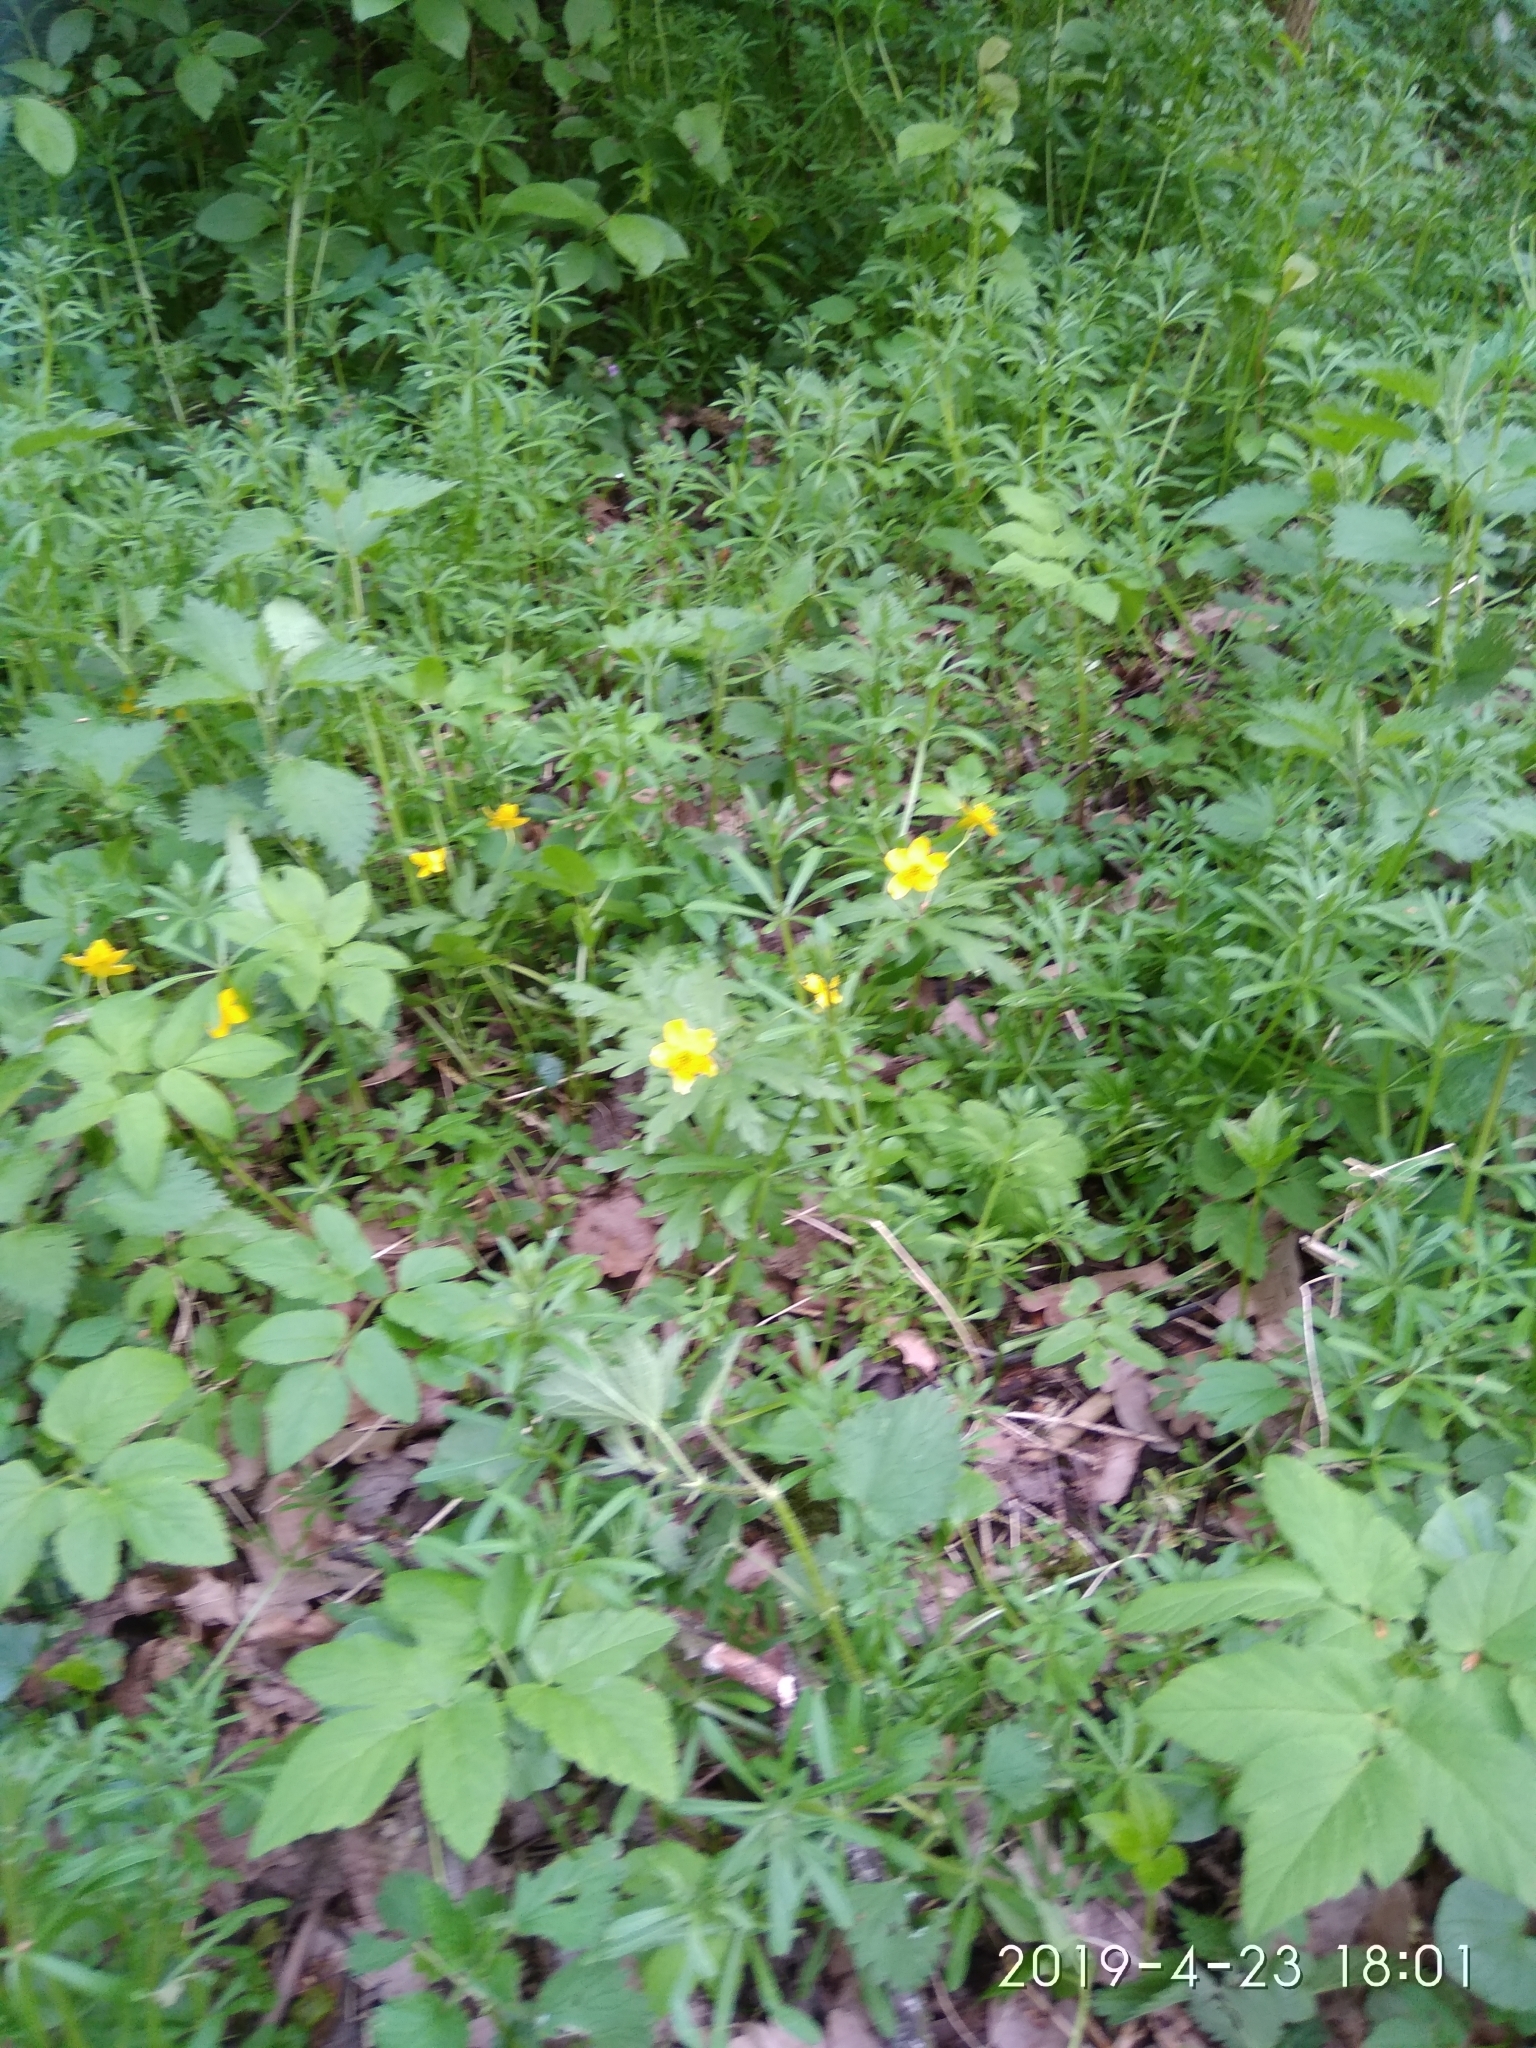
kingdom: Plantae
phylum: Tracheophyta
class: Magnoliopsida
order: Ranunculales
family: Ranunculaceae
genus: Anemone
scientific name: Anemone ranunculoides
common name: Yellow anemone
